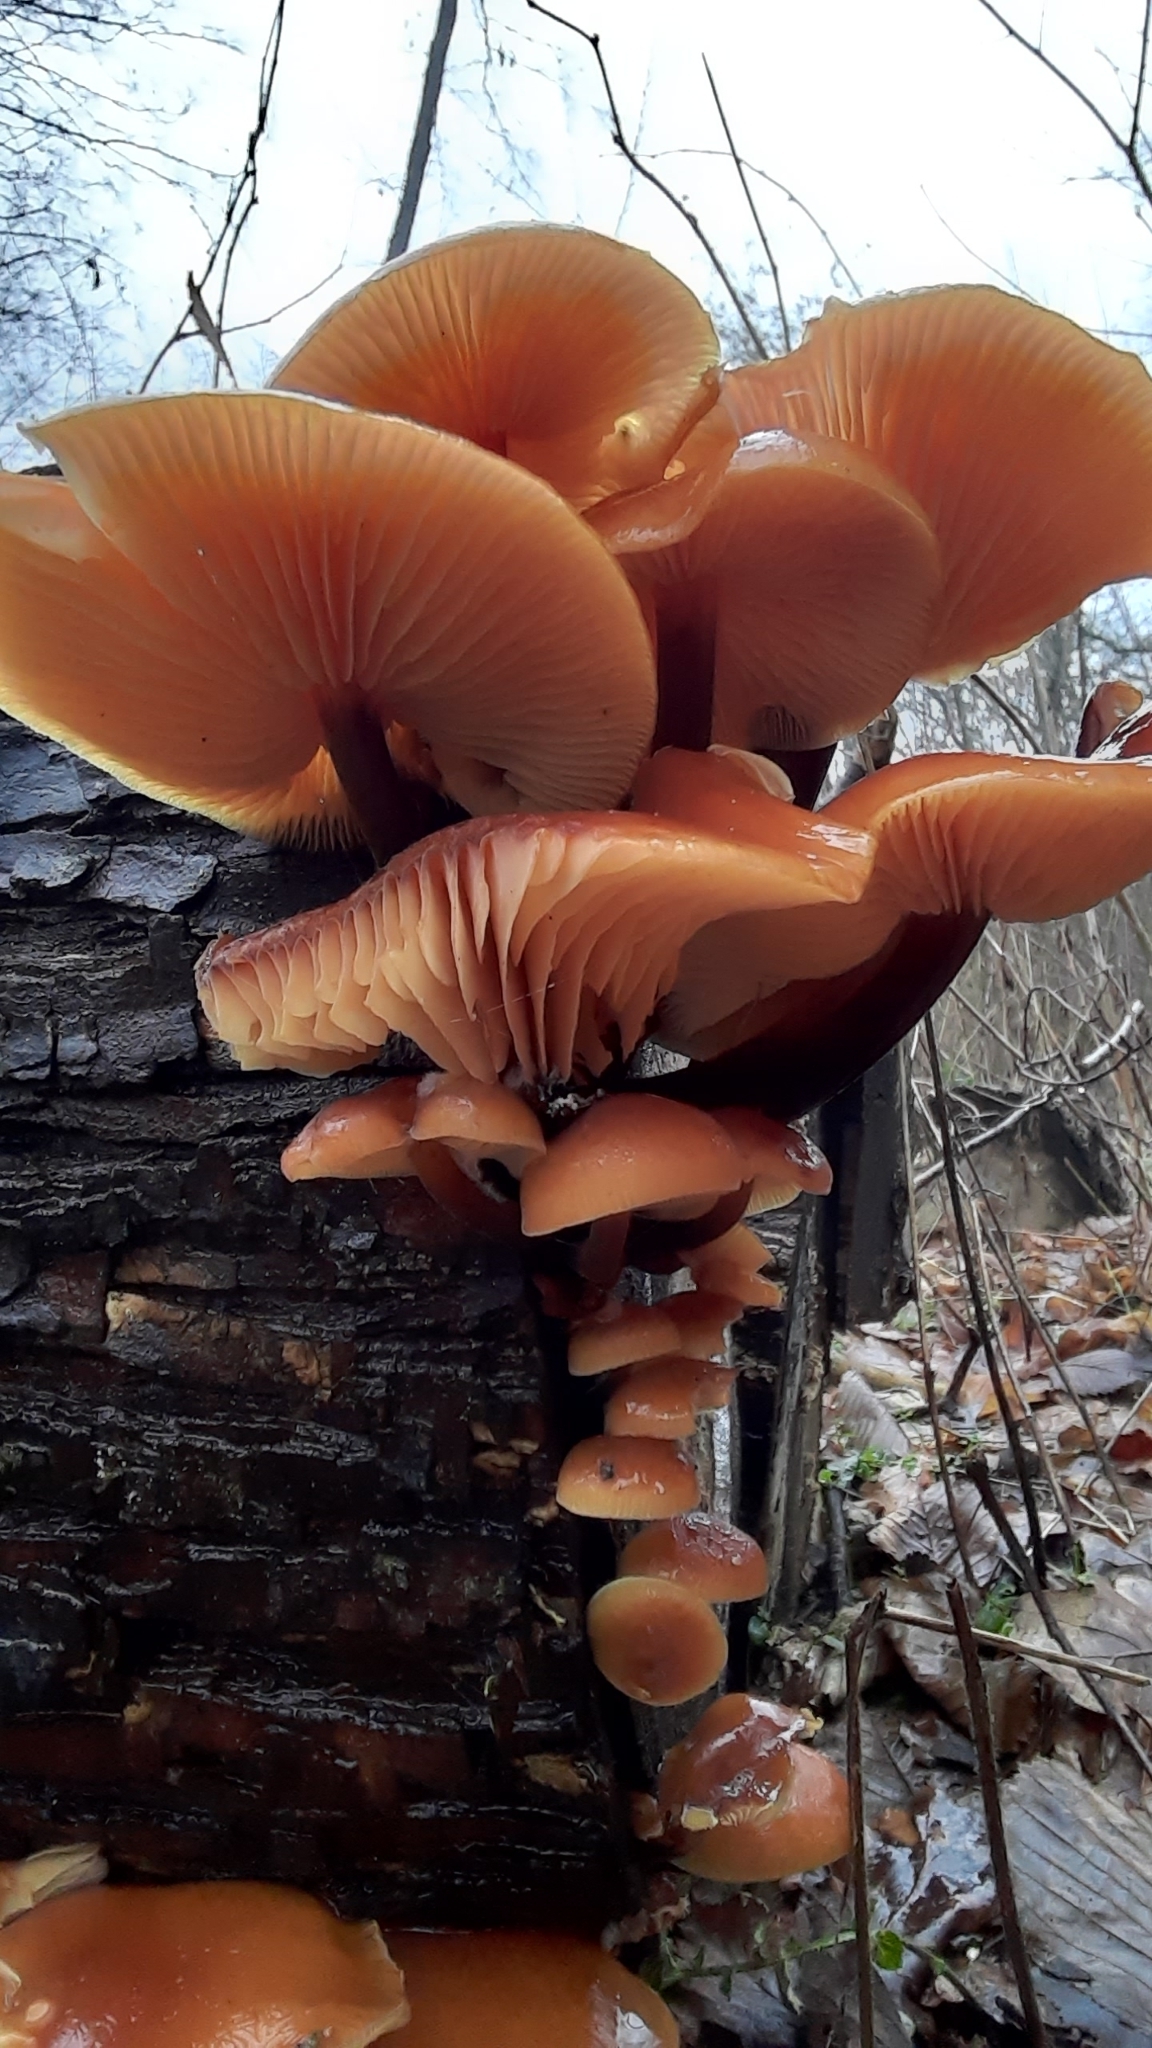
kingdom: Fungi
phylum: Basidiomycota
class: Agaricomycetes
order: Agaricales
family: Physalacriaceae
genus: Flammulina
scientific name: Flammulina
